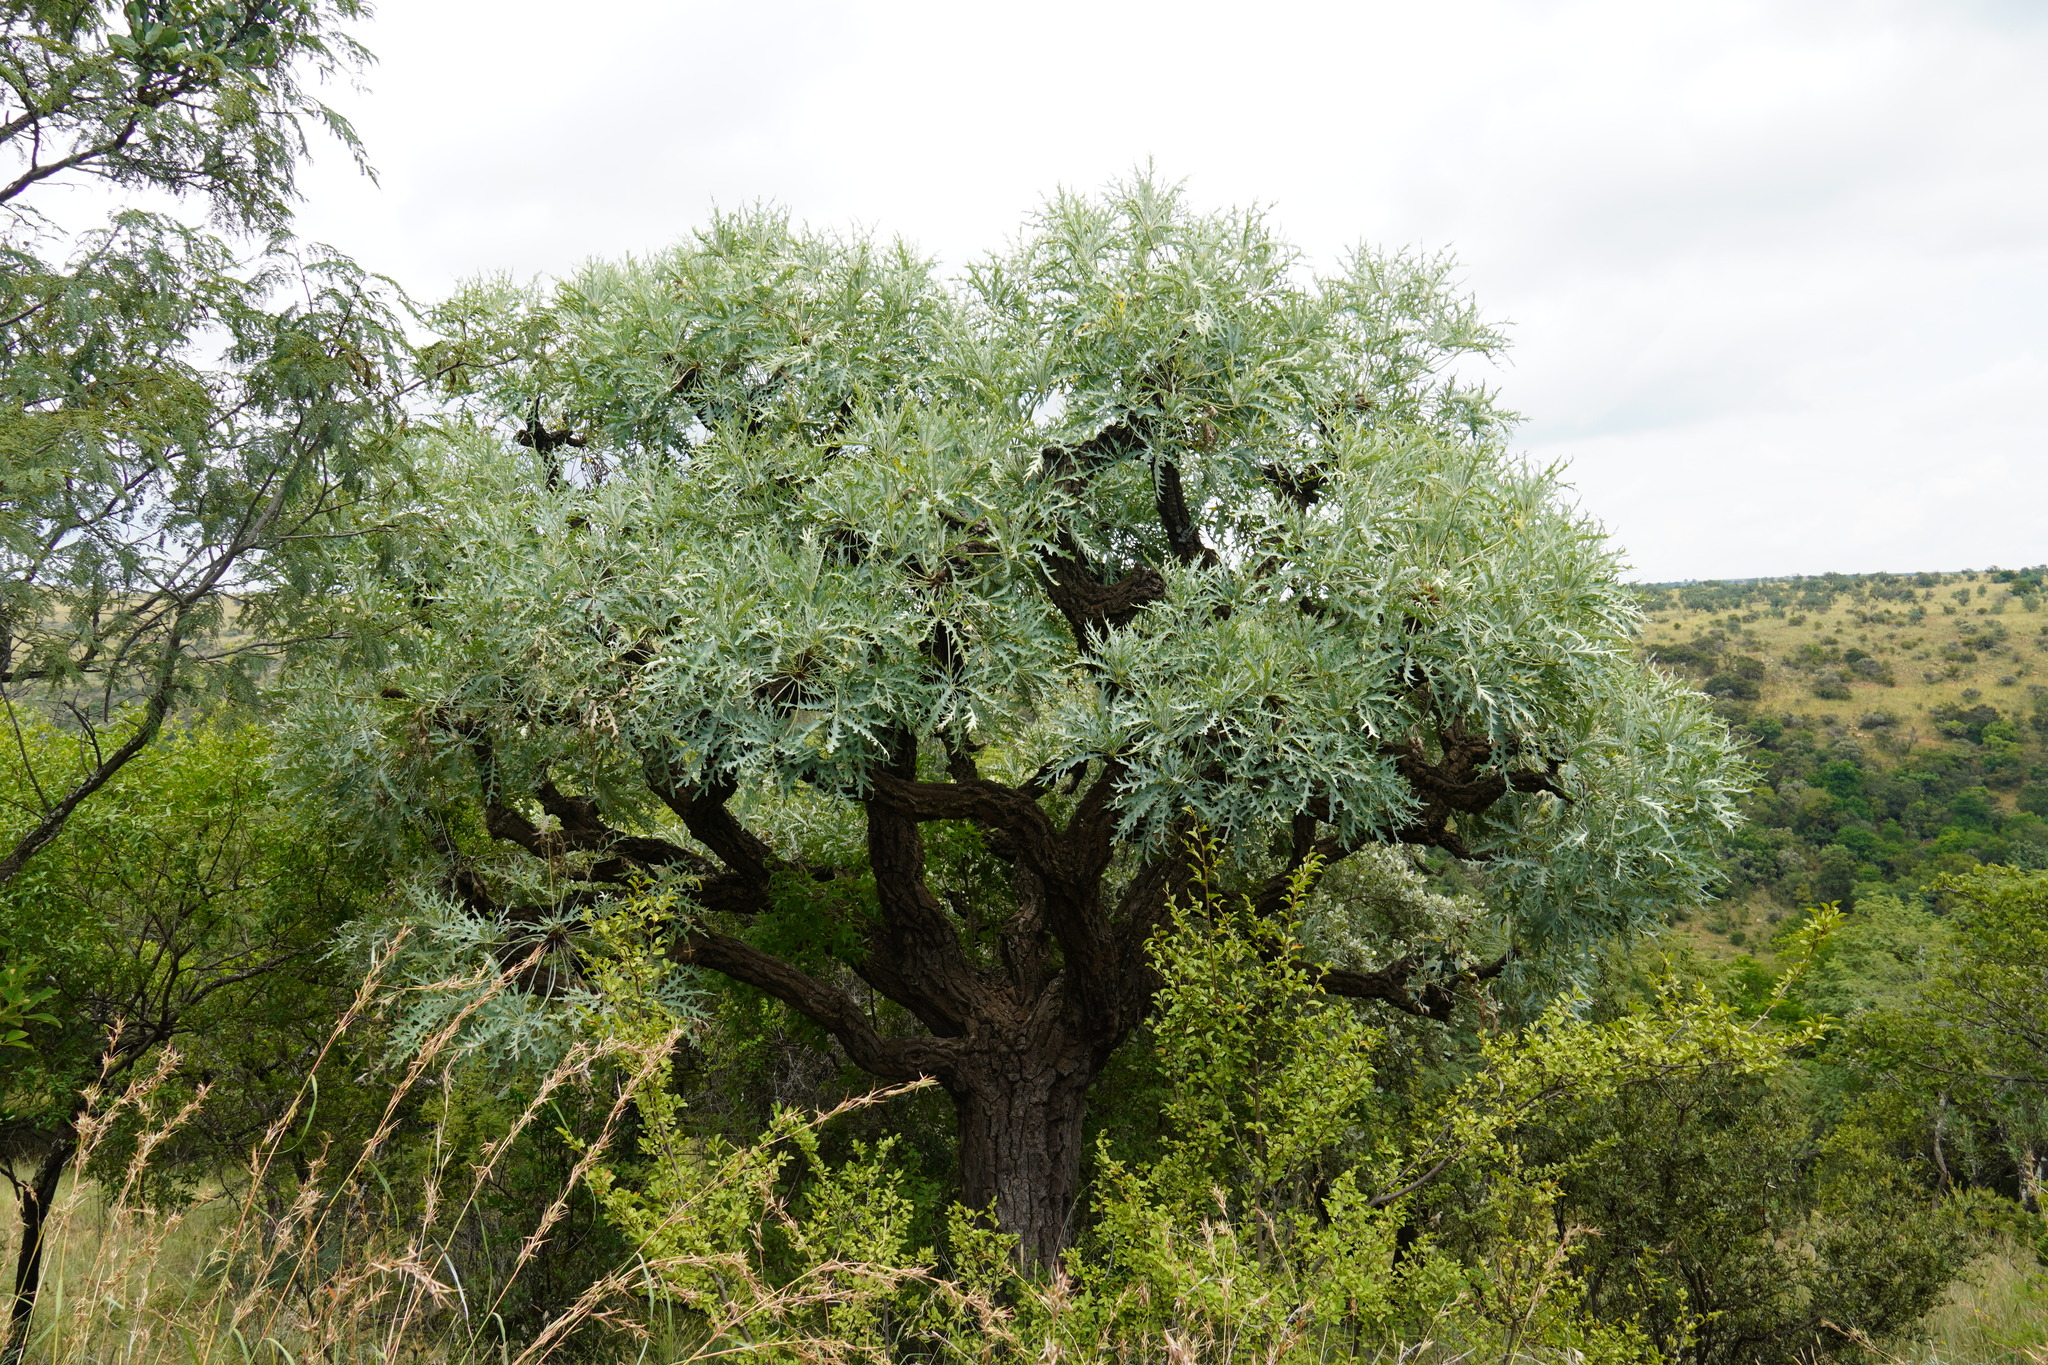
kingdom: Plantae
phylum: Tracheophyta
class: Magnoliopsida
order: Apiales
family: Araliaceae
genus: Cussonia
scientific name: Cussonia paniculata
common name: Cabbagetree
